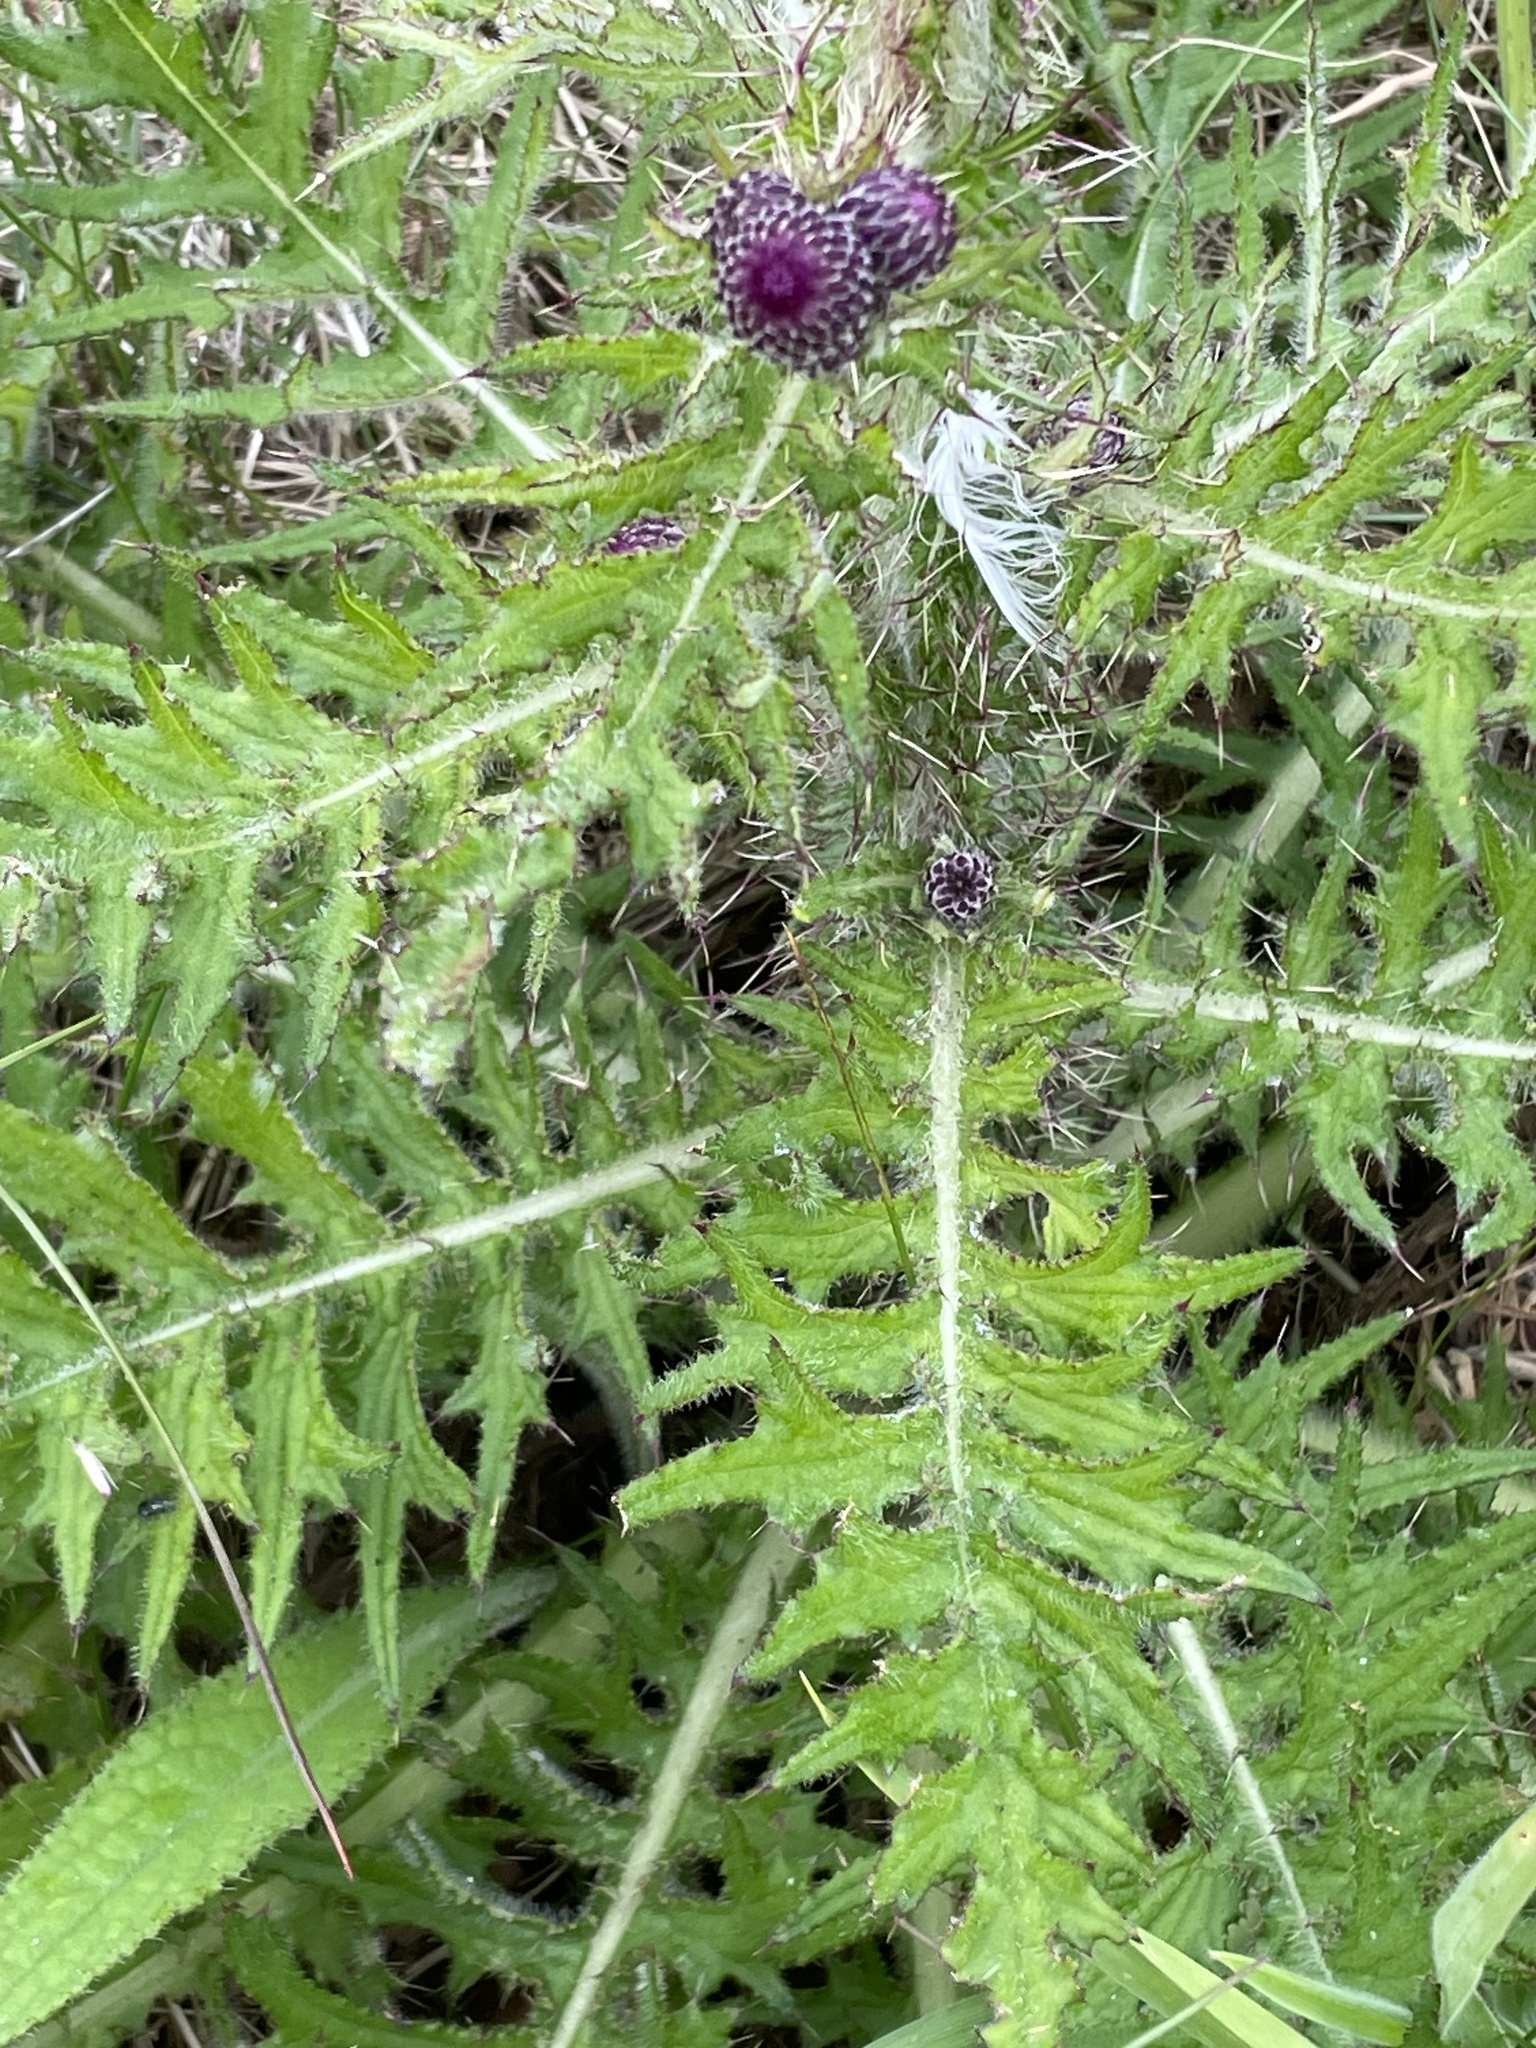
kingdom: Plantae
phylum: Tracheophyta
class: Magnoliopsida
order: Asterales
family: Asteraceae
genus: Cirsium
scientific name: Cirsium palustre
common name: Marsh thistle
